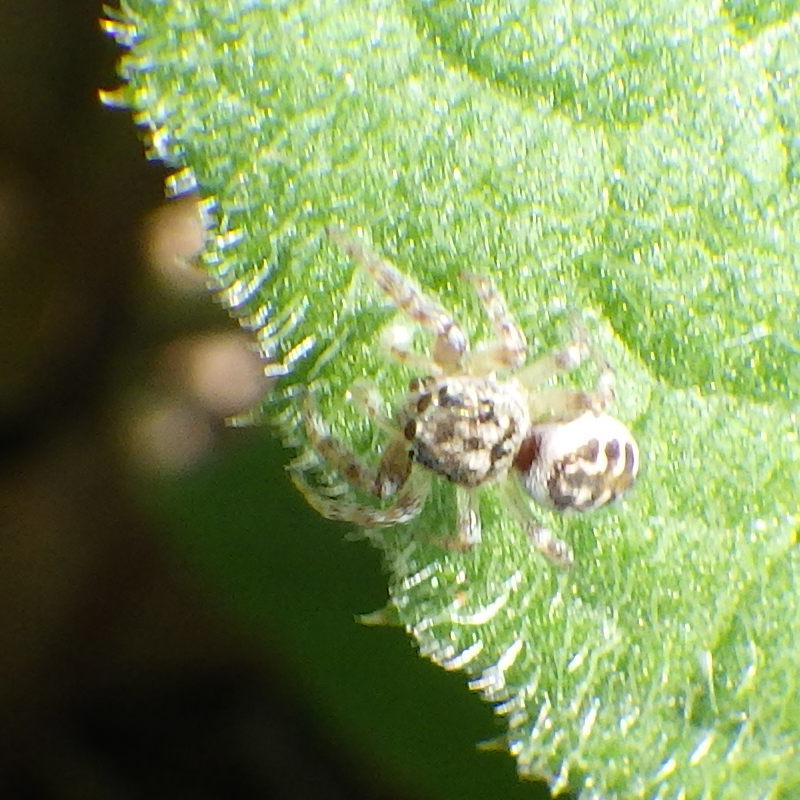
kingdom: Animalia
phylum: Arthropoda
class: Arachnida
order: Araneae
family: Salticidae
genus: Pelegrina
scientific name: Pelegrina proterva
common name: Common white-cheeked jumping spider
